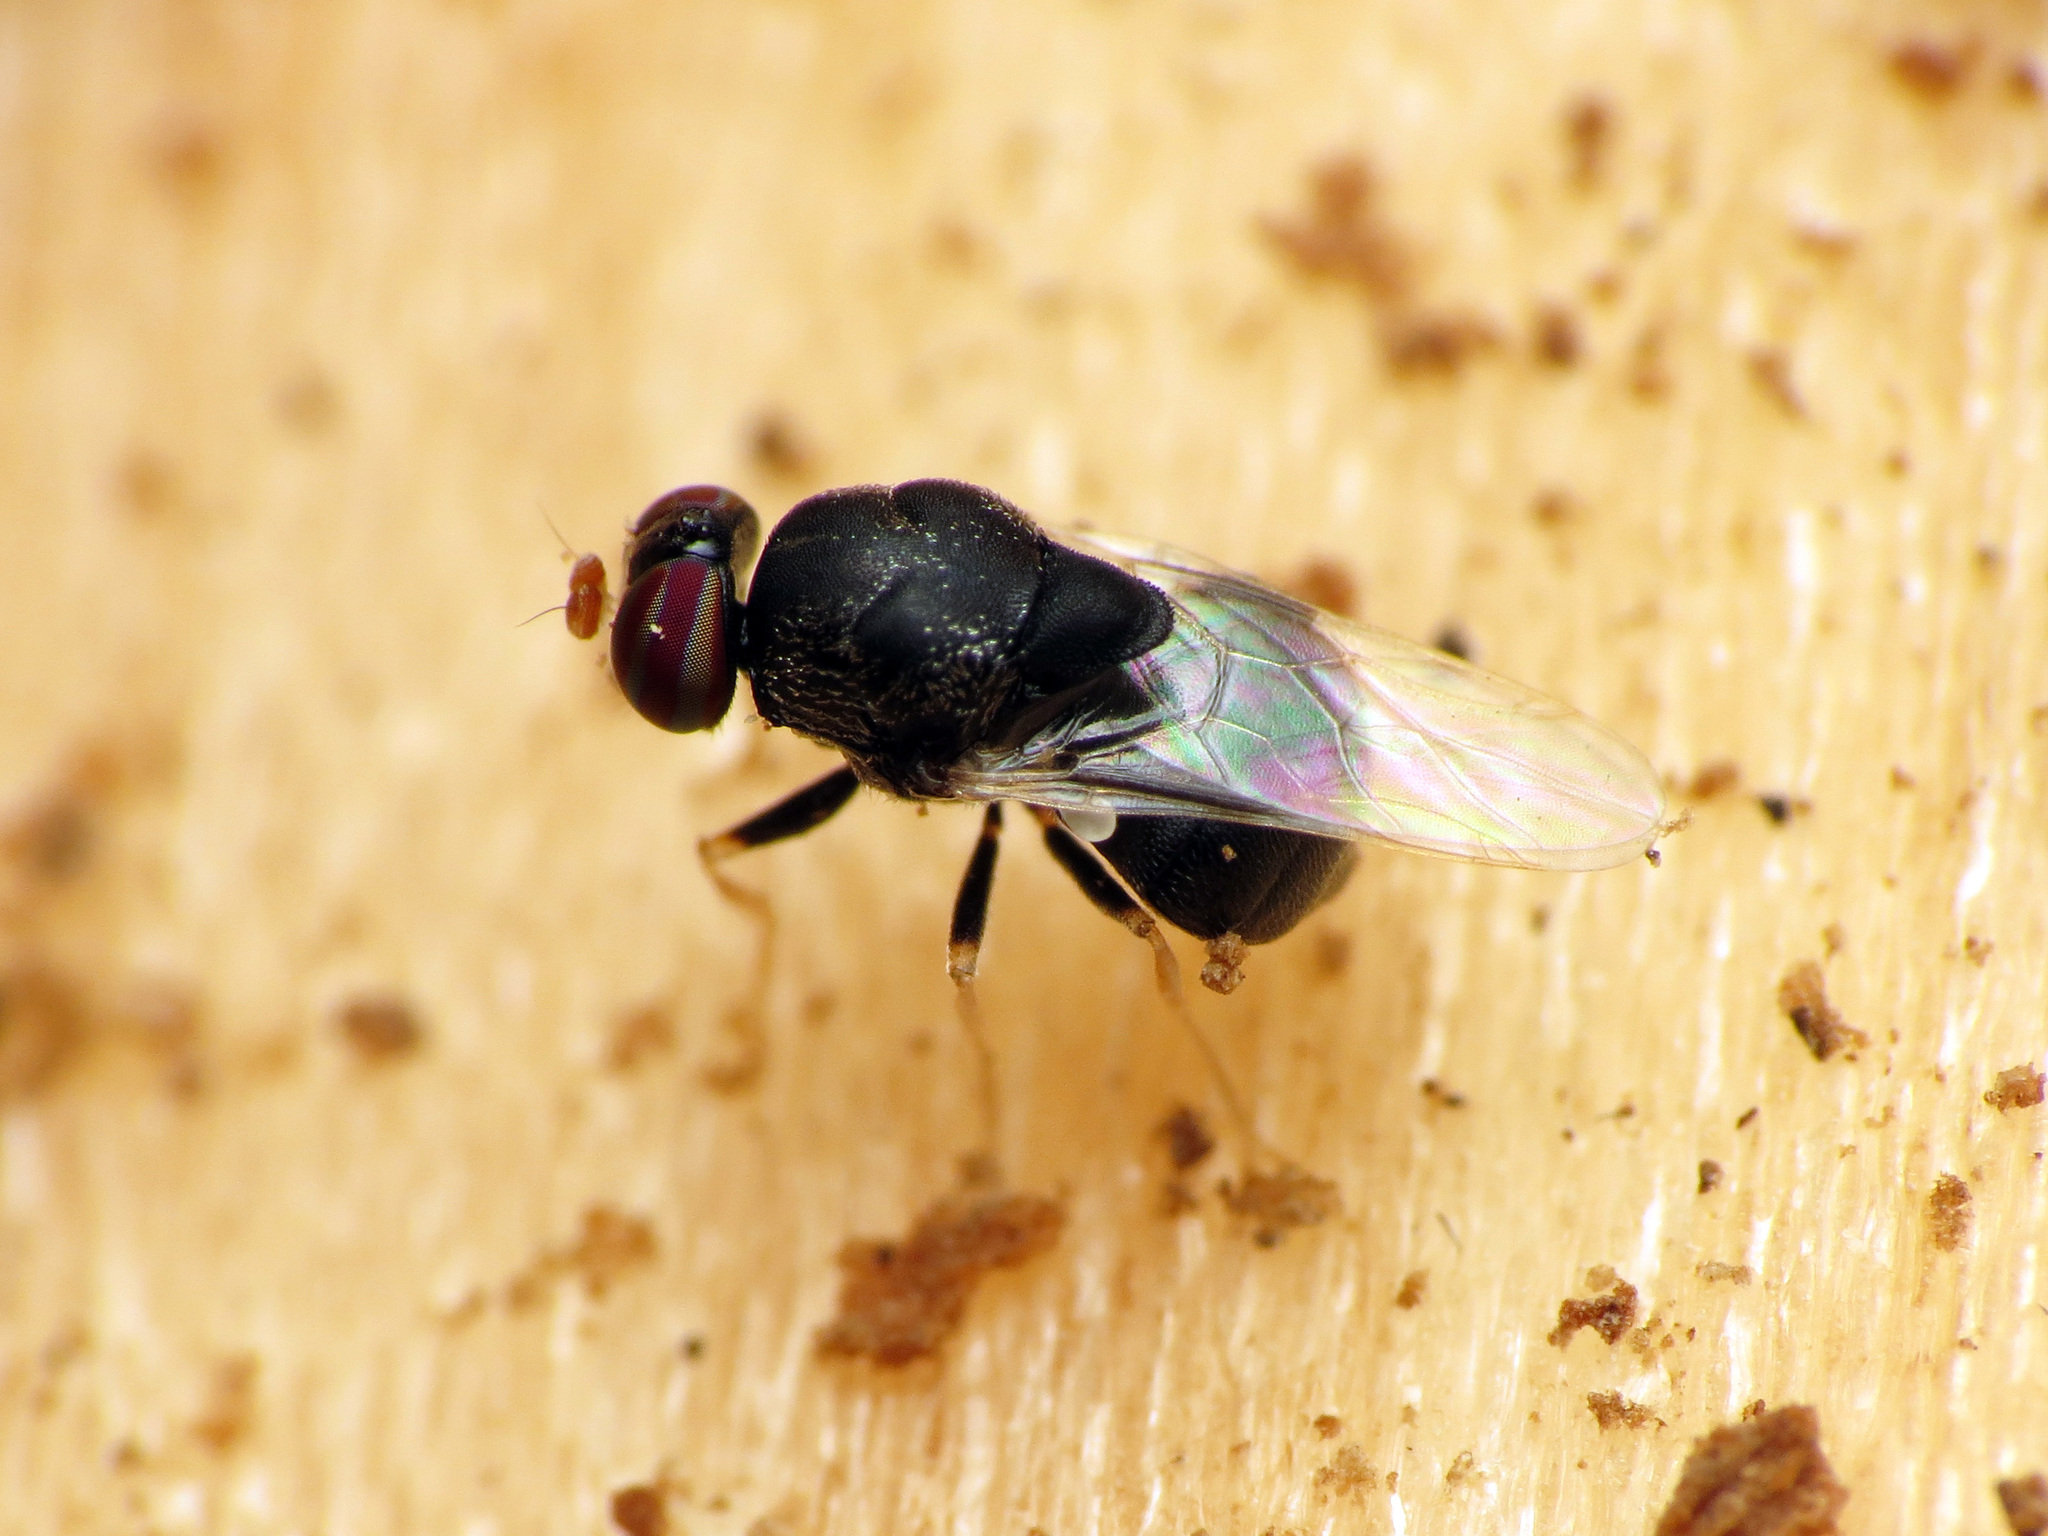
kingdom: Animalia
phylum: Arthropoda
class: Insecta
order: Diptera
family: Stratiomyidae
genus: Eidalimus
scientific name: Eidalimus fuscus
